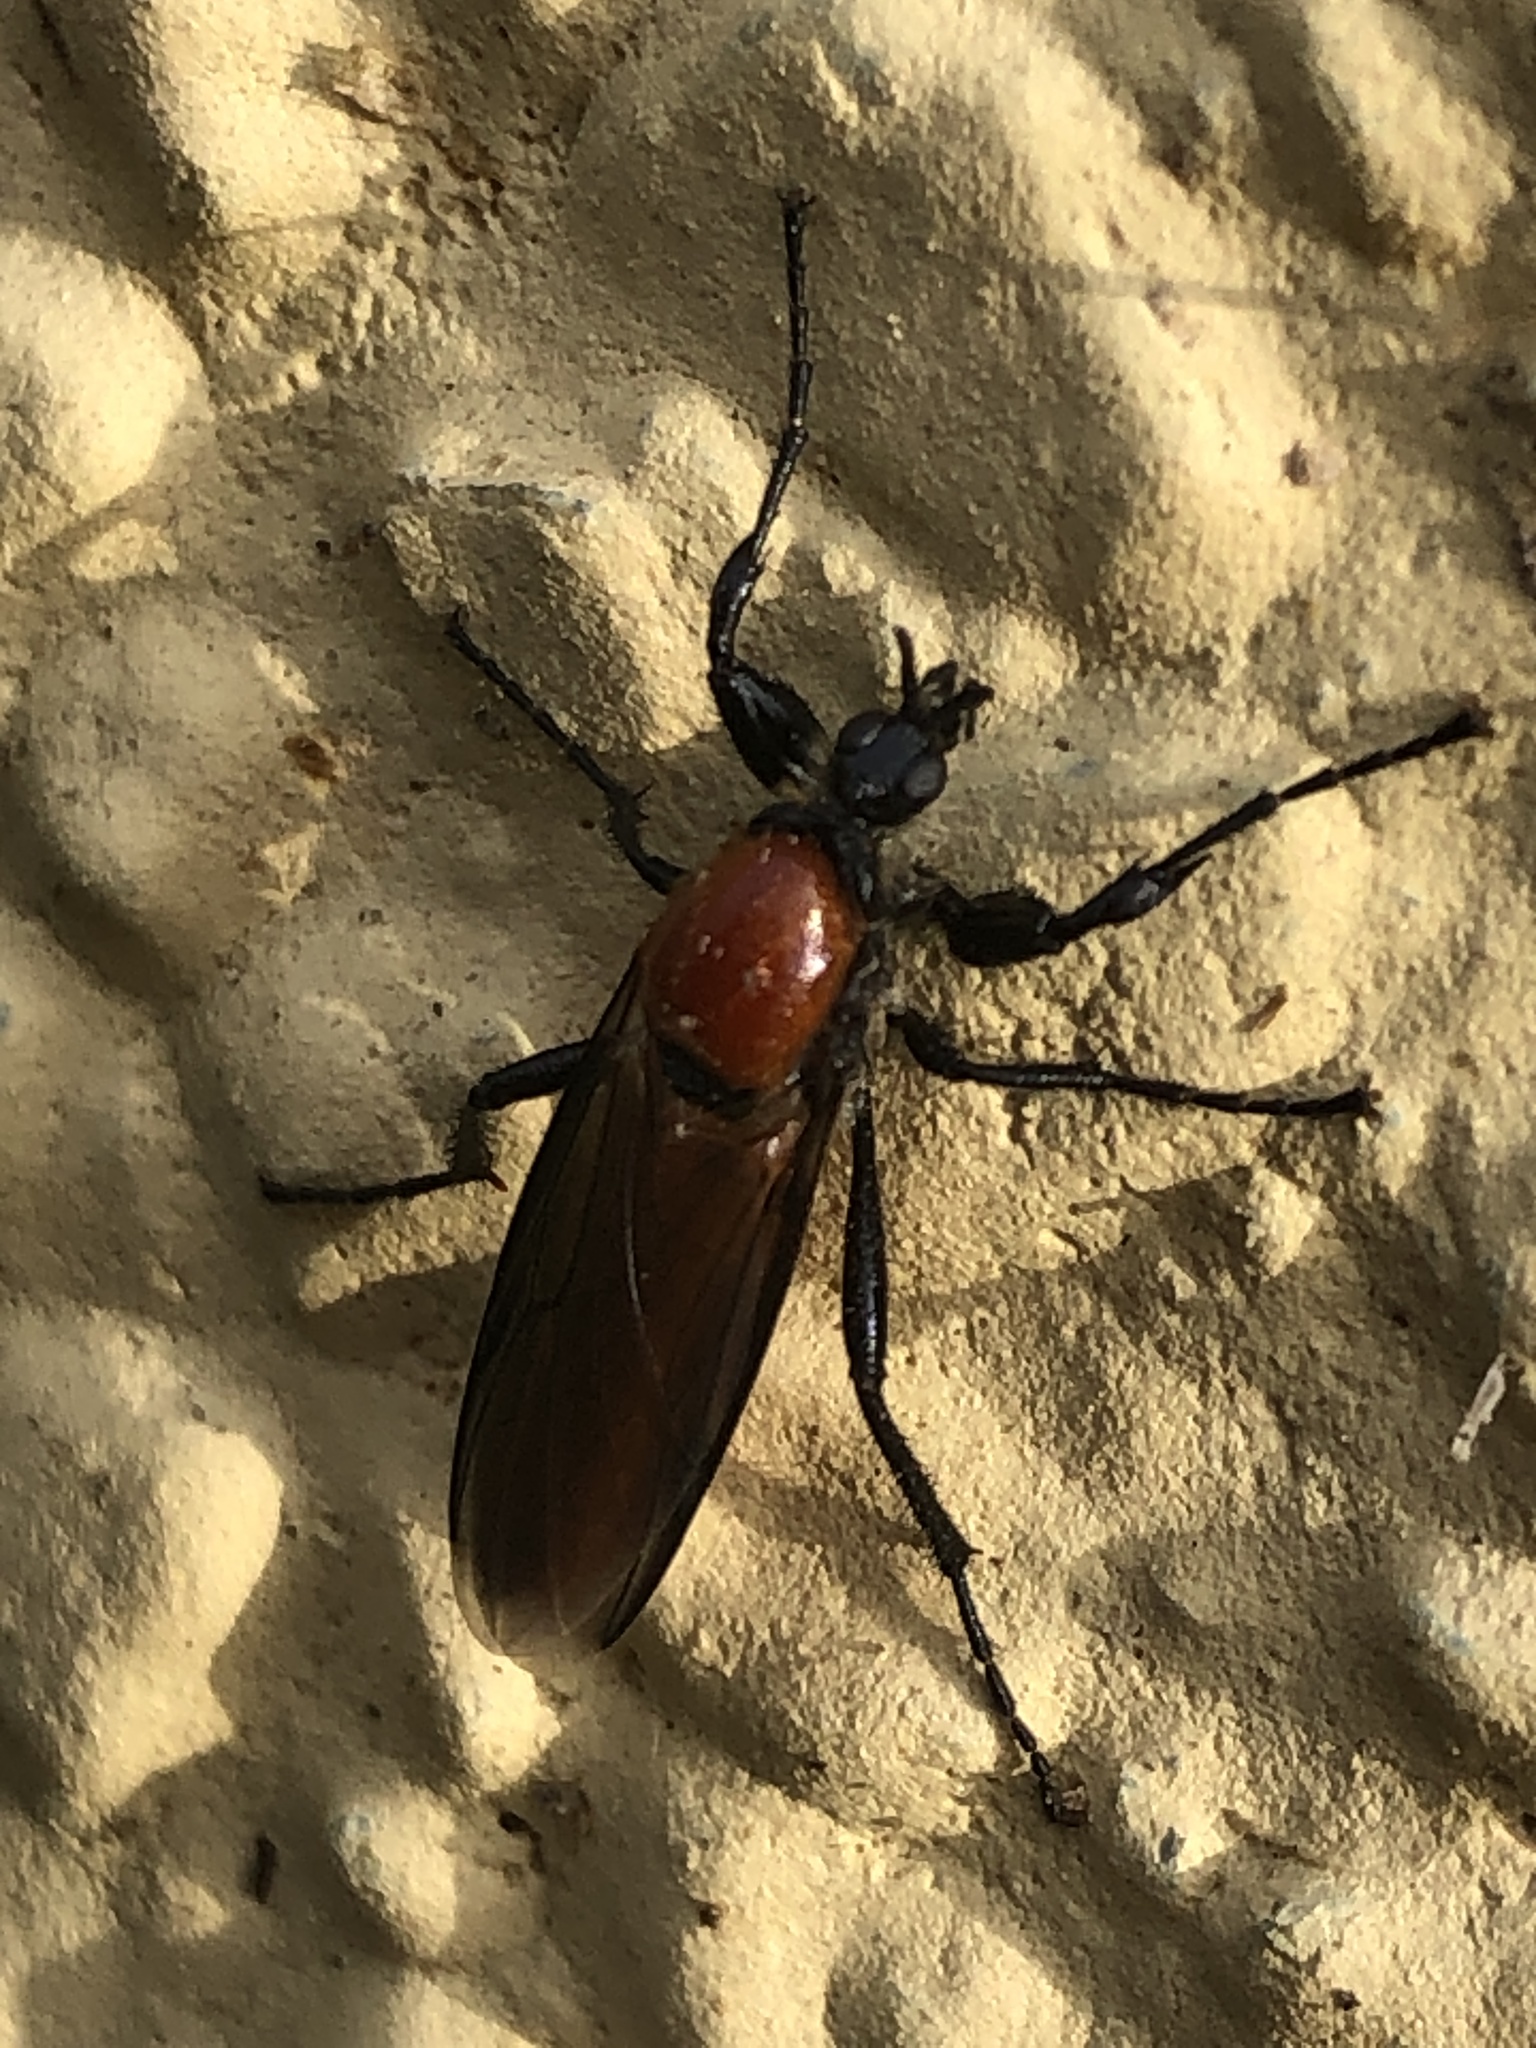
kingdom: Animalia
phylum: Arthropoda
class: Insecta
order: Diptera
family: Bibionidae
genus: Bibio
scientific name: Bibio hortulanus
